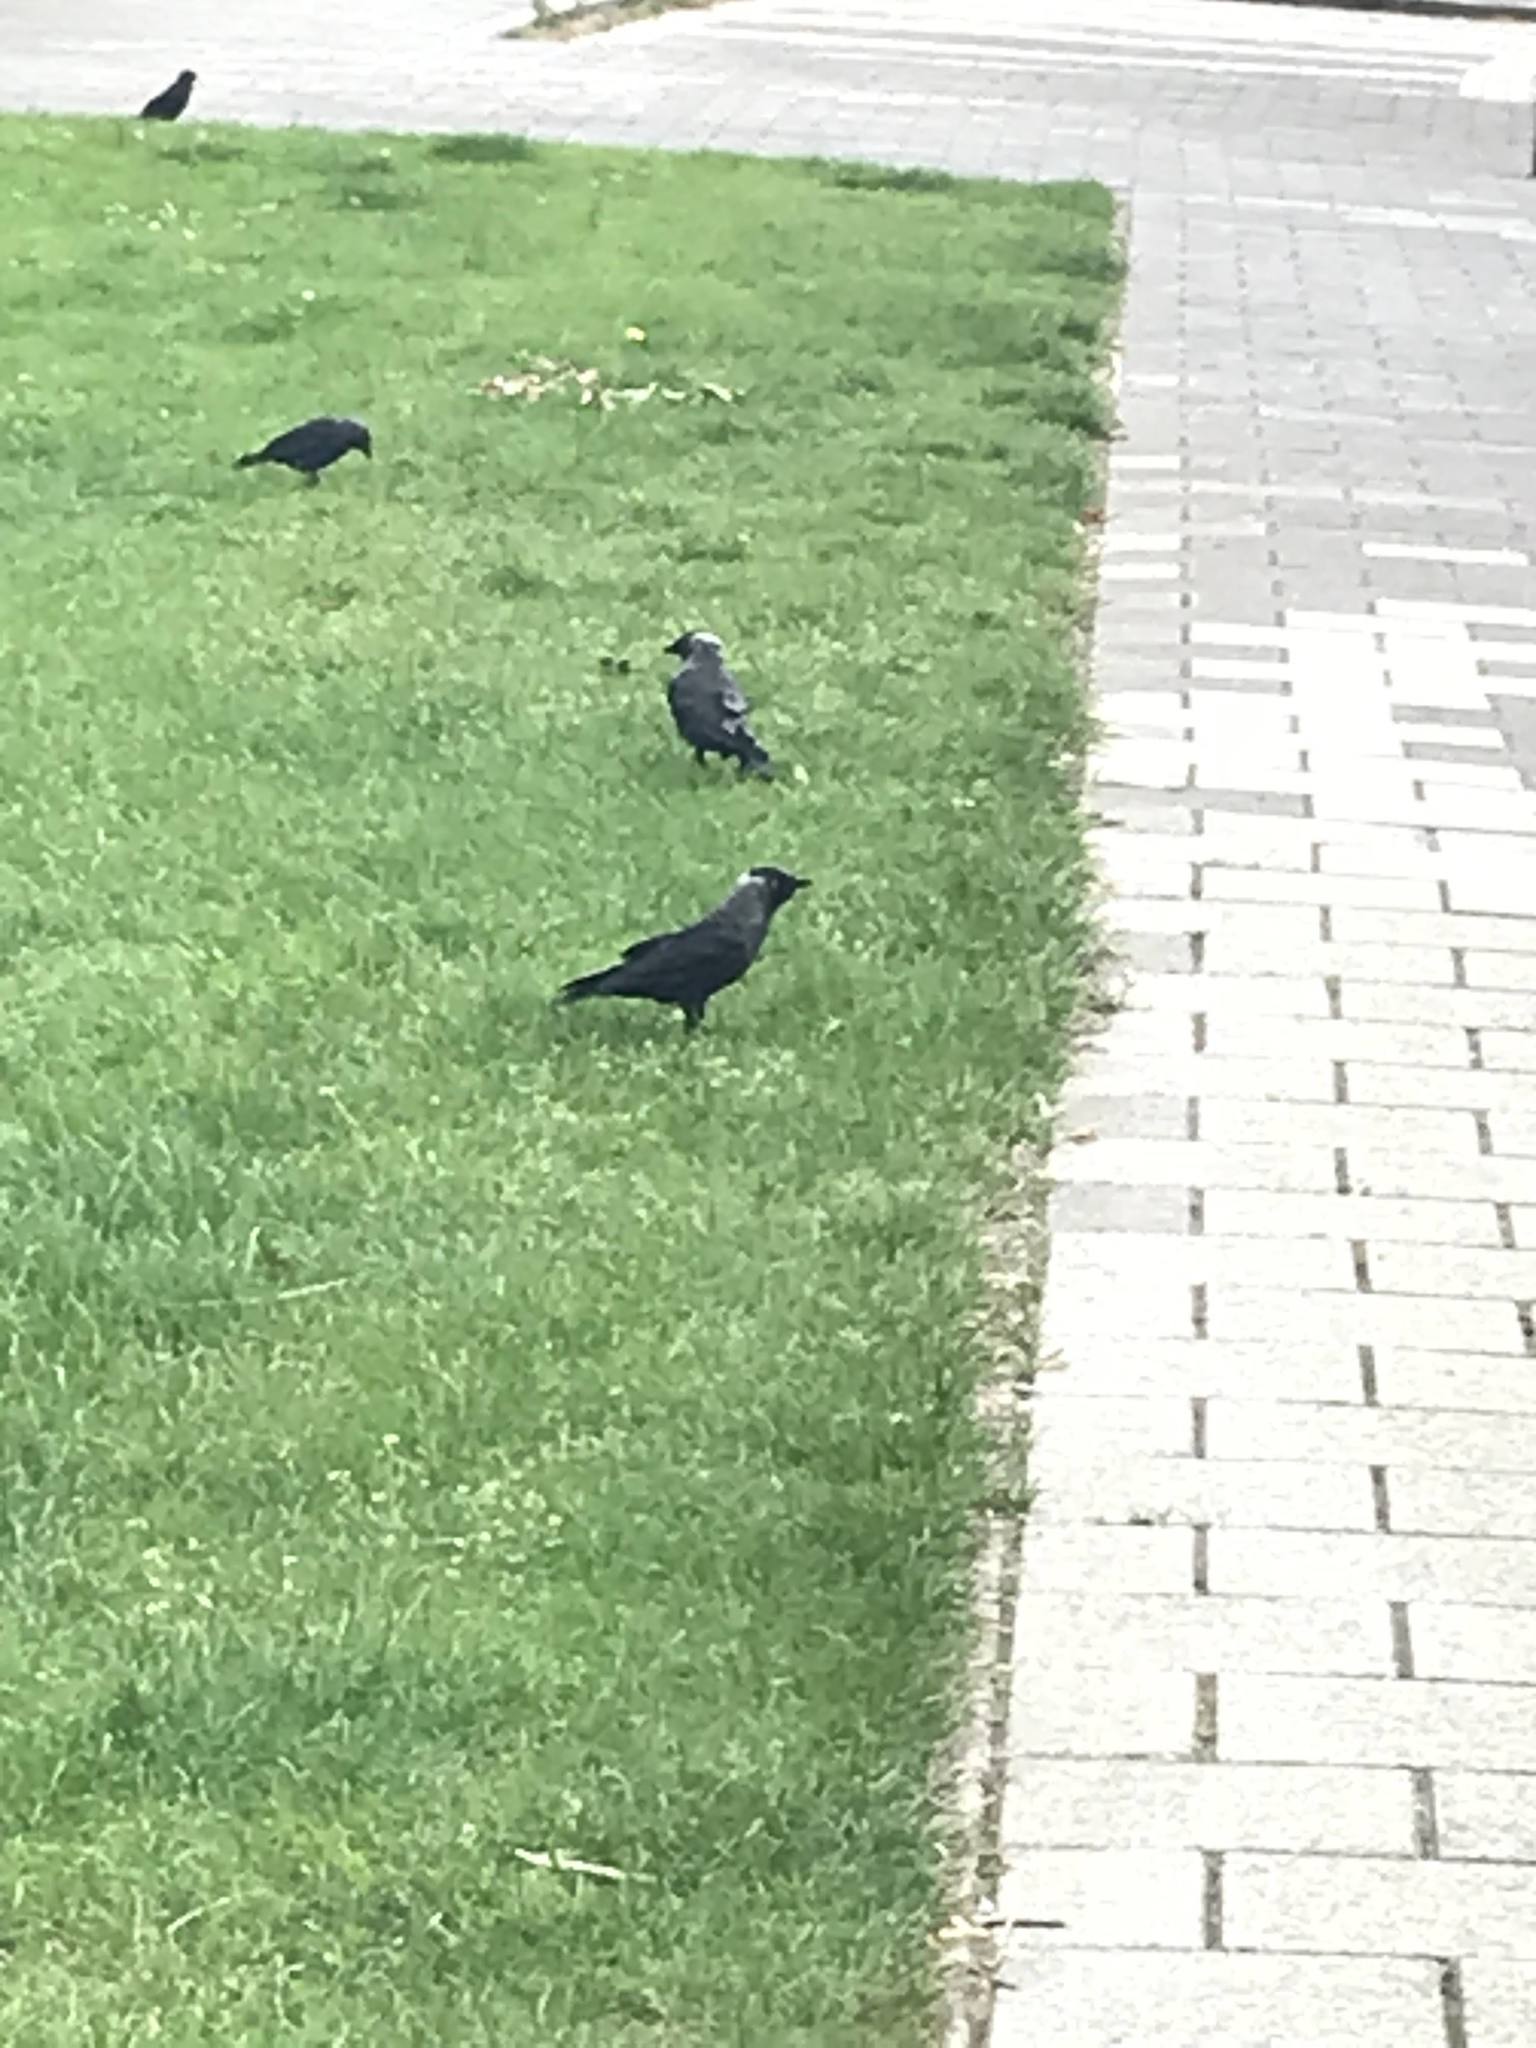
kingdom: Animalia
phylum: Chordata
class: Aves
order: Passeriformes
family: Corvidae
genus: Coloeus
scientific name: Coloeus monedula
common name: Western jackdaw
